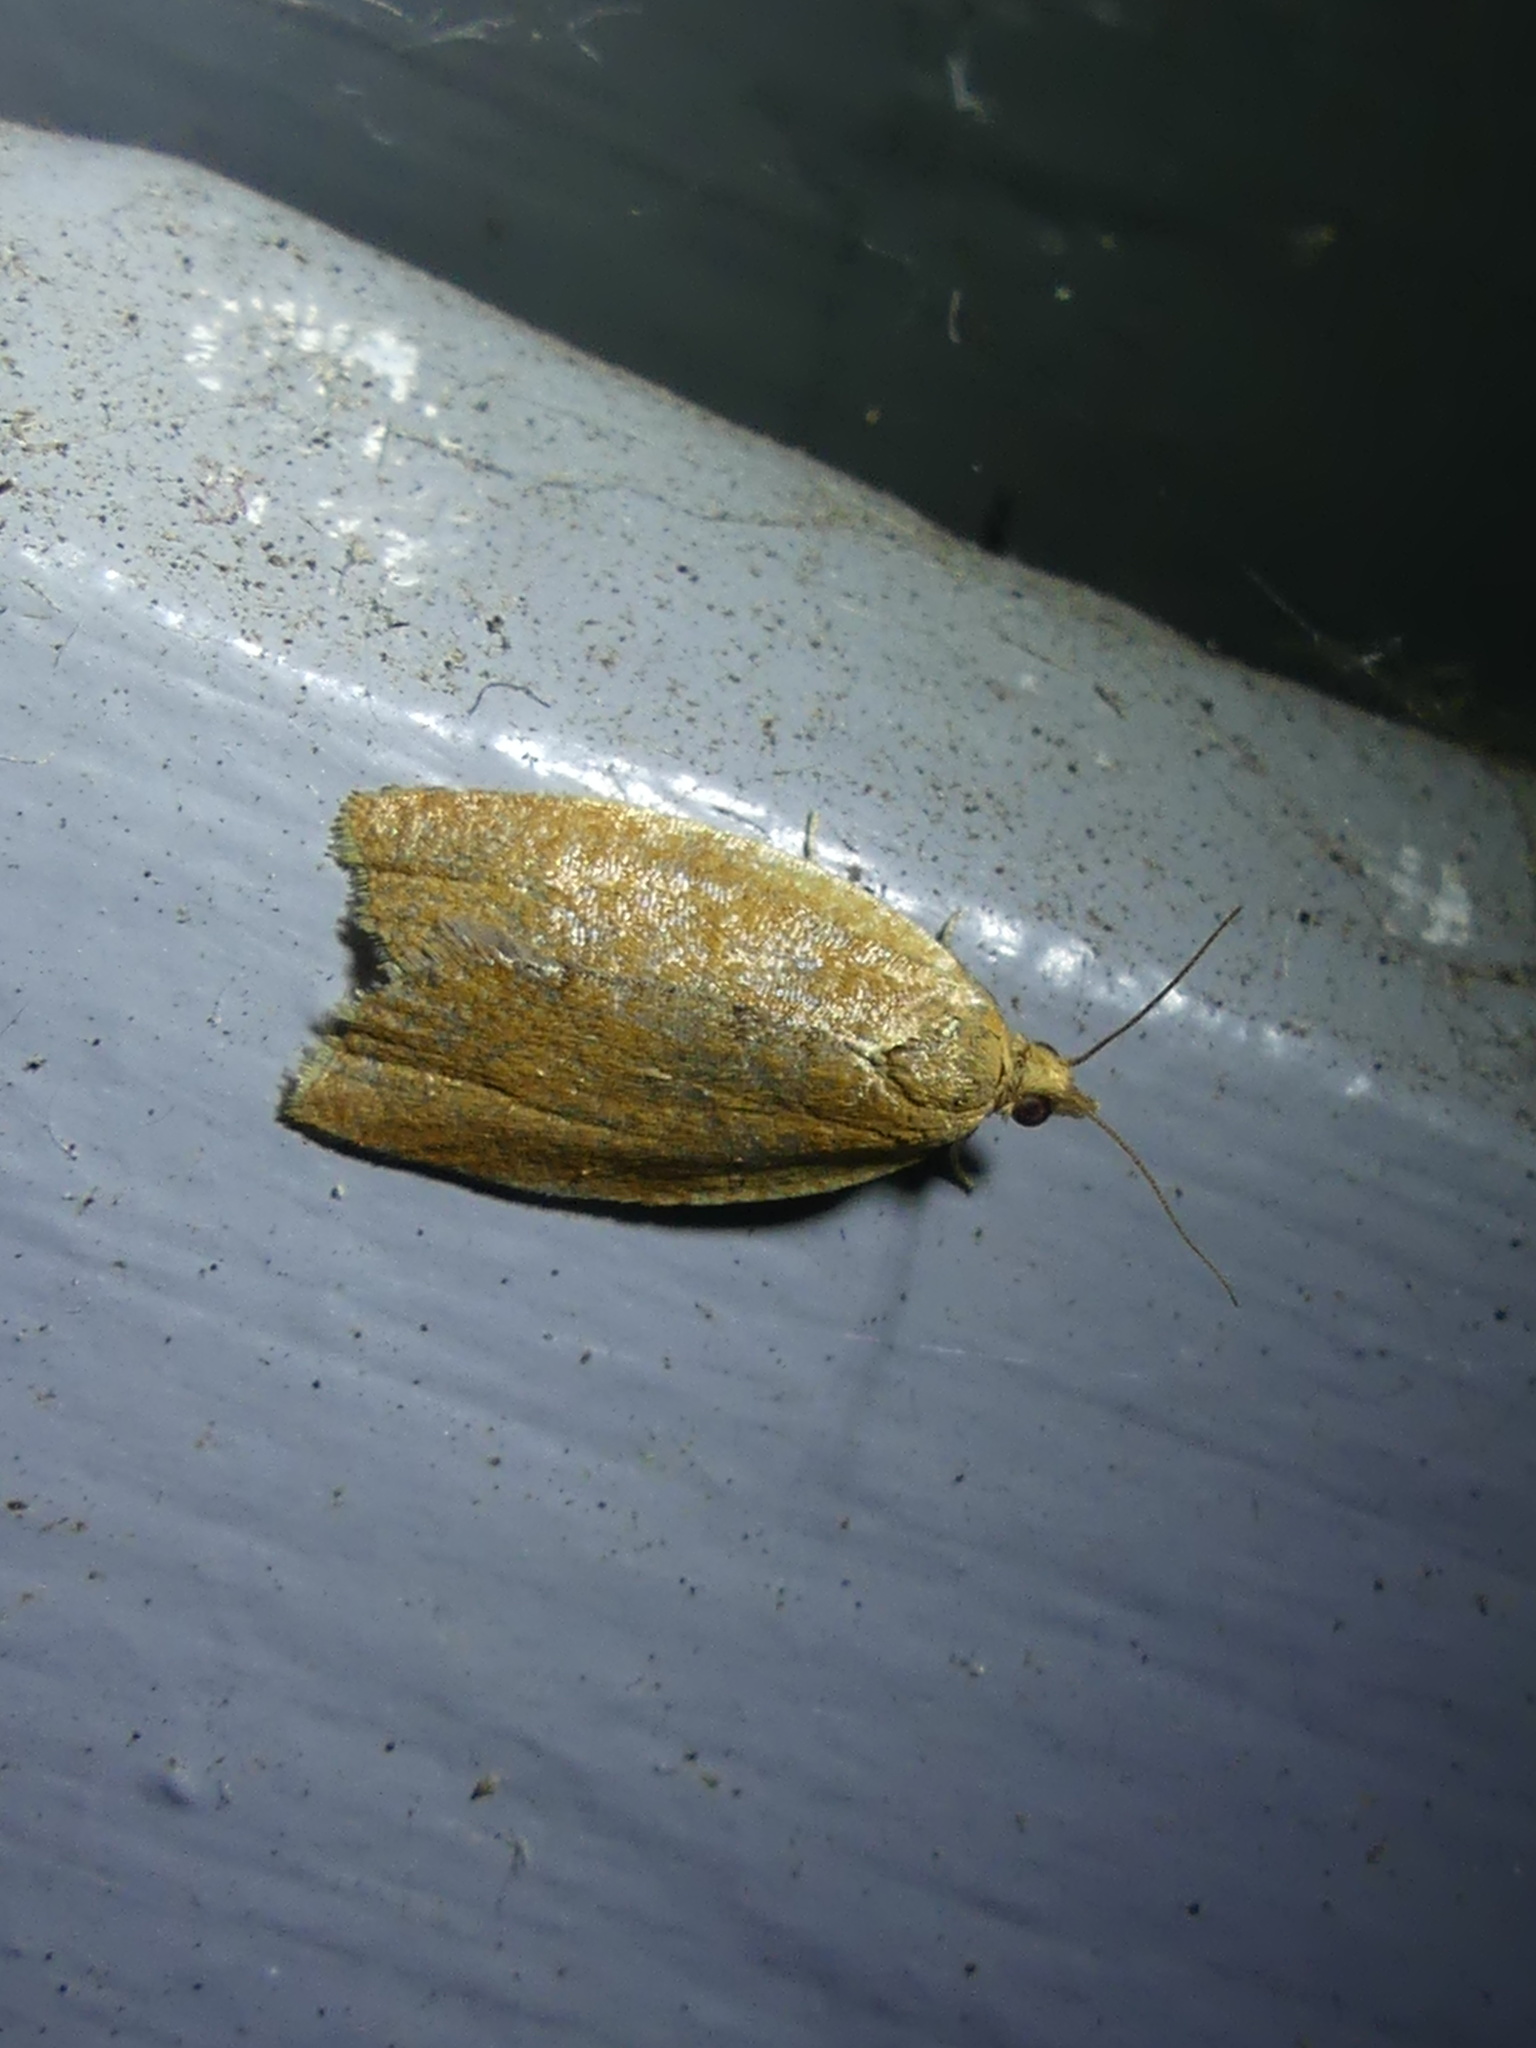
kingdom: Animalia
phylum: Arthropoda
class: Insecta
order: Lepidoptera
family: Tortricidae
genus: Clepsis
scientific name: Clepsis consimilana
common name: Privet tortrix
